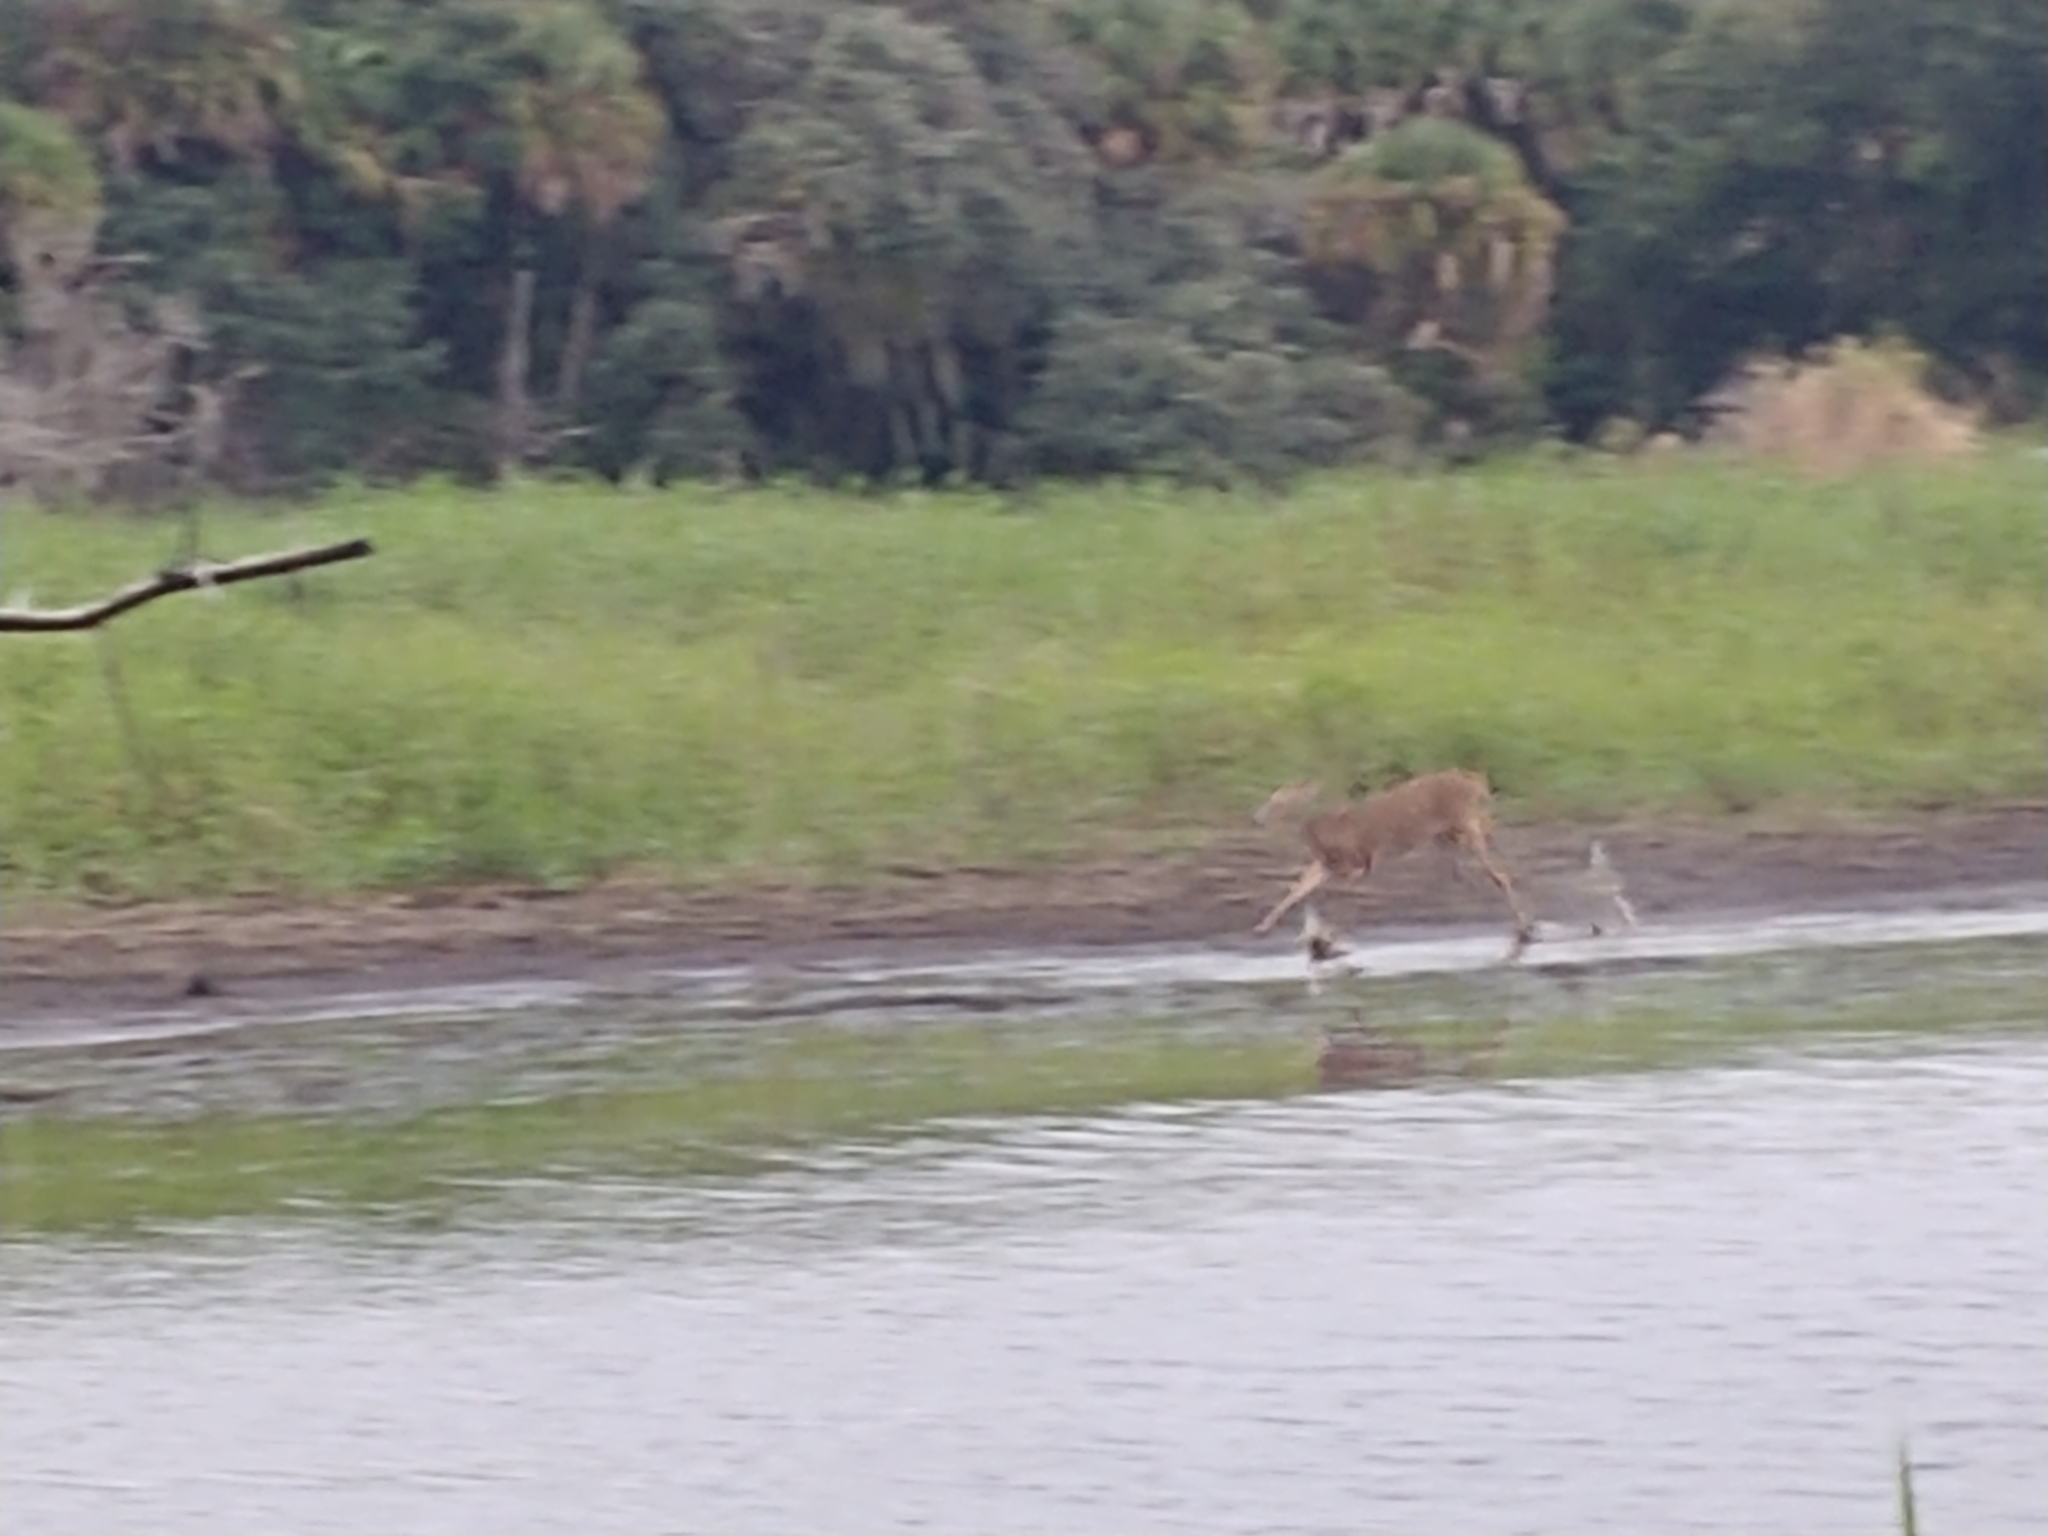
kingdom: Animalia
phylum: Chordata
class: Mammalia
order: Artiodactyla
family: Cervidae
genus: Odocoileus
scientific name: Odocoileus virginianus
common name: White-tailed deer
